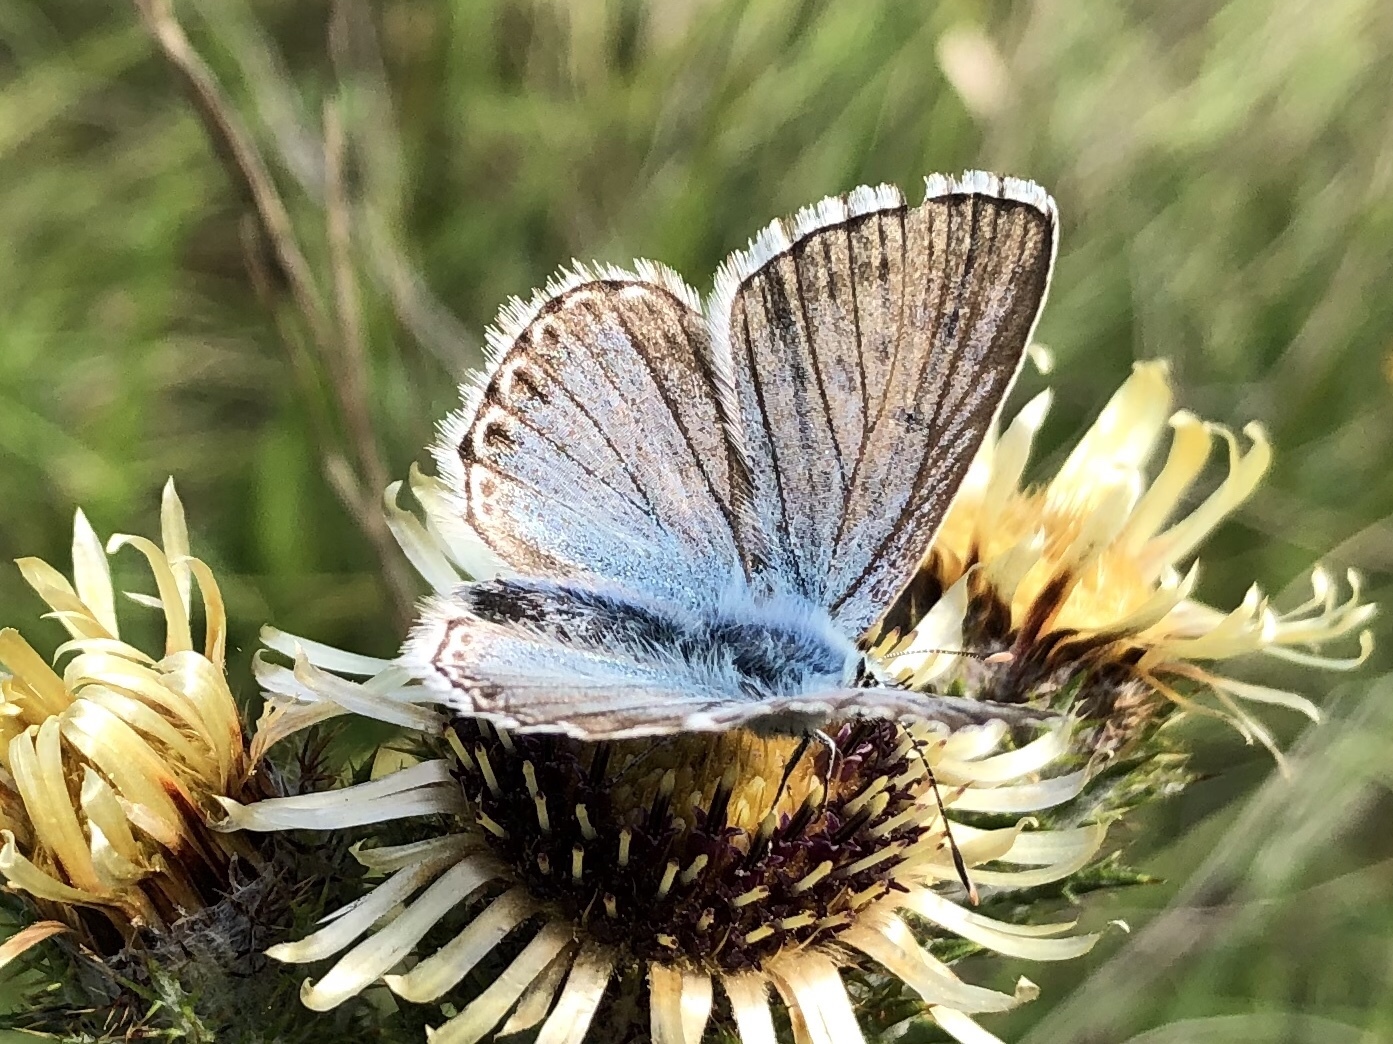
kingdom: Animalia
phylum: Arthropoda
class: Insecta
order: Lepidoptera
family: Lycaenidae
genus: Lysandra
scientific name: Lysandra coridon
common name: Chalkhill blue
